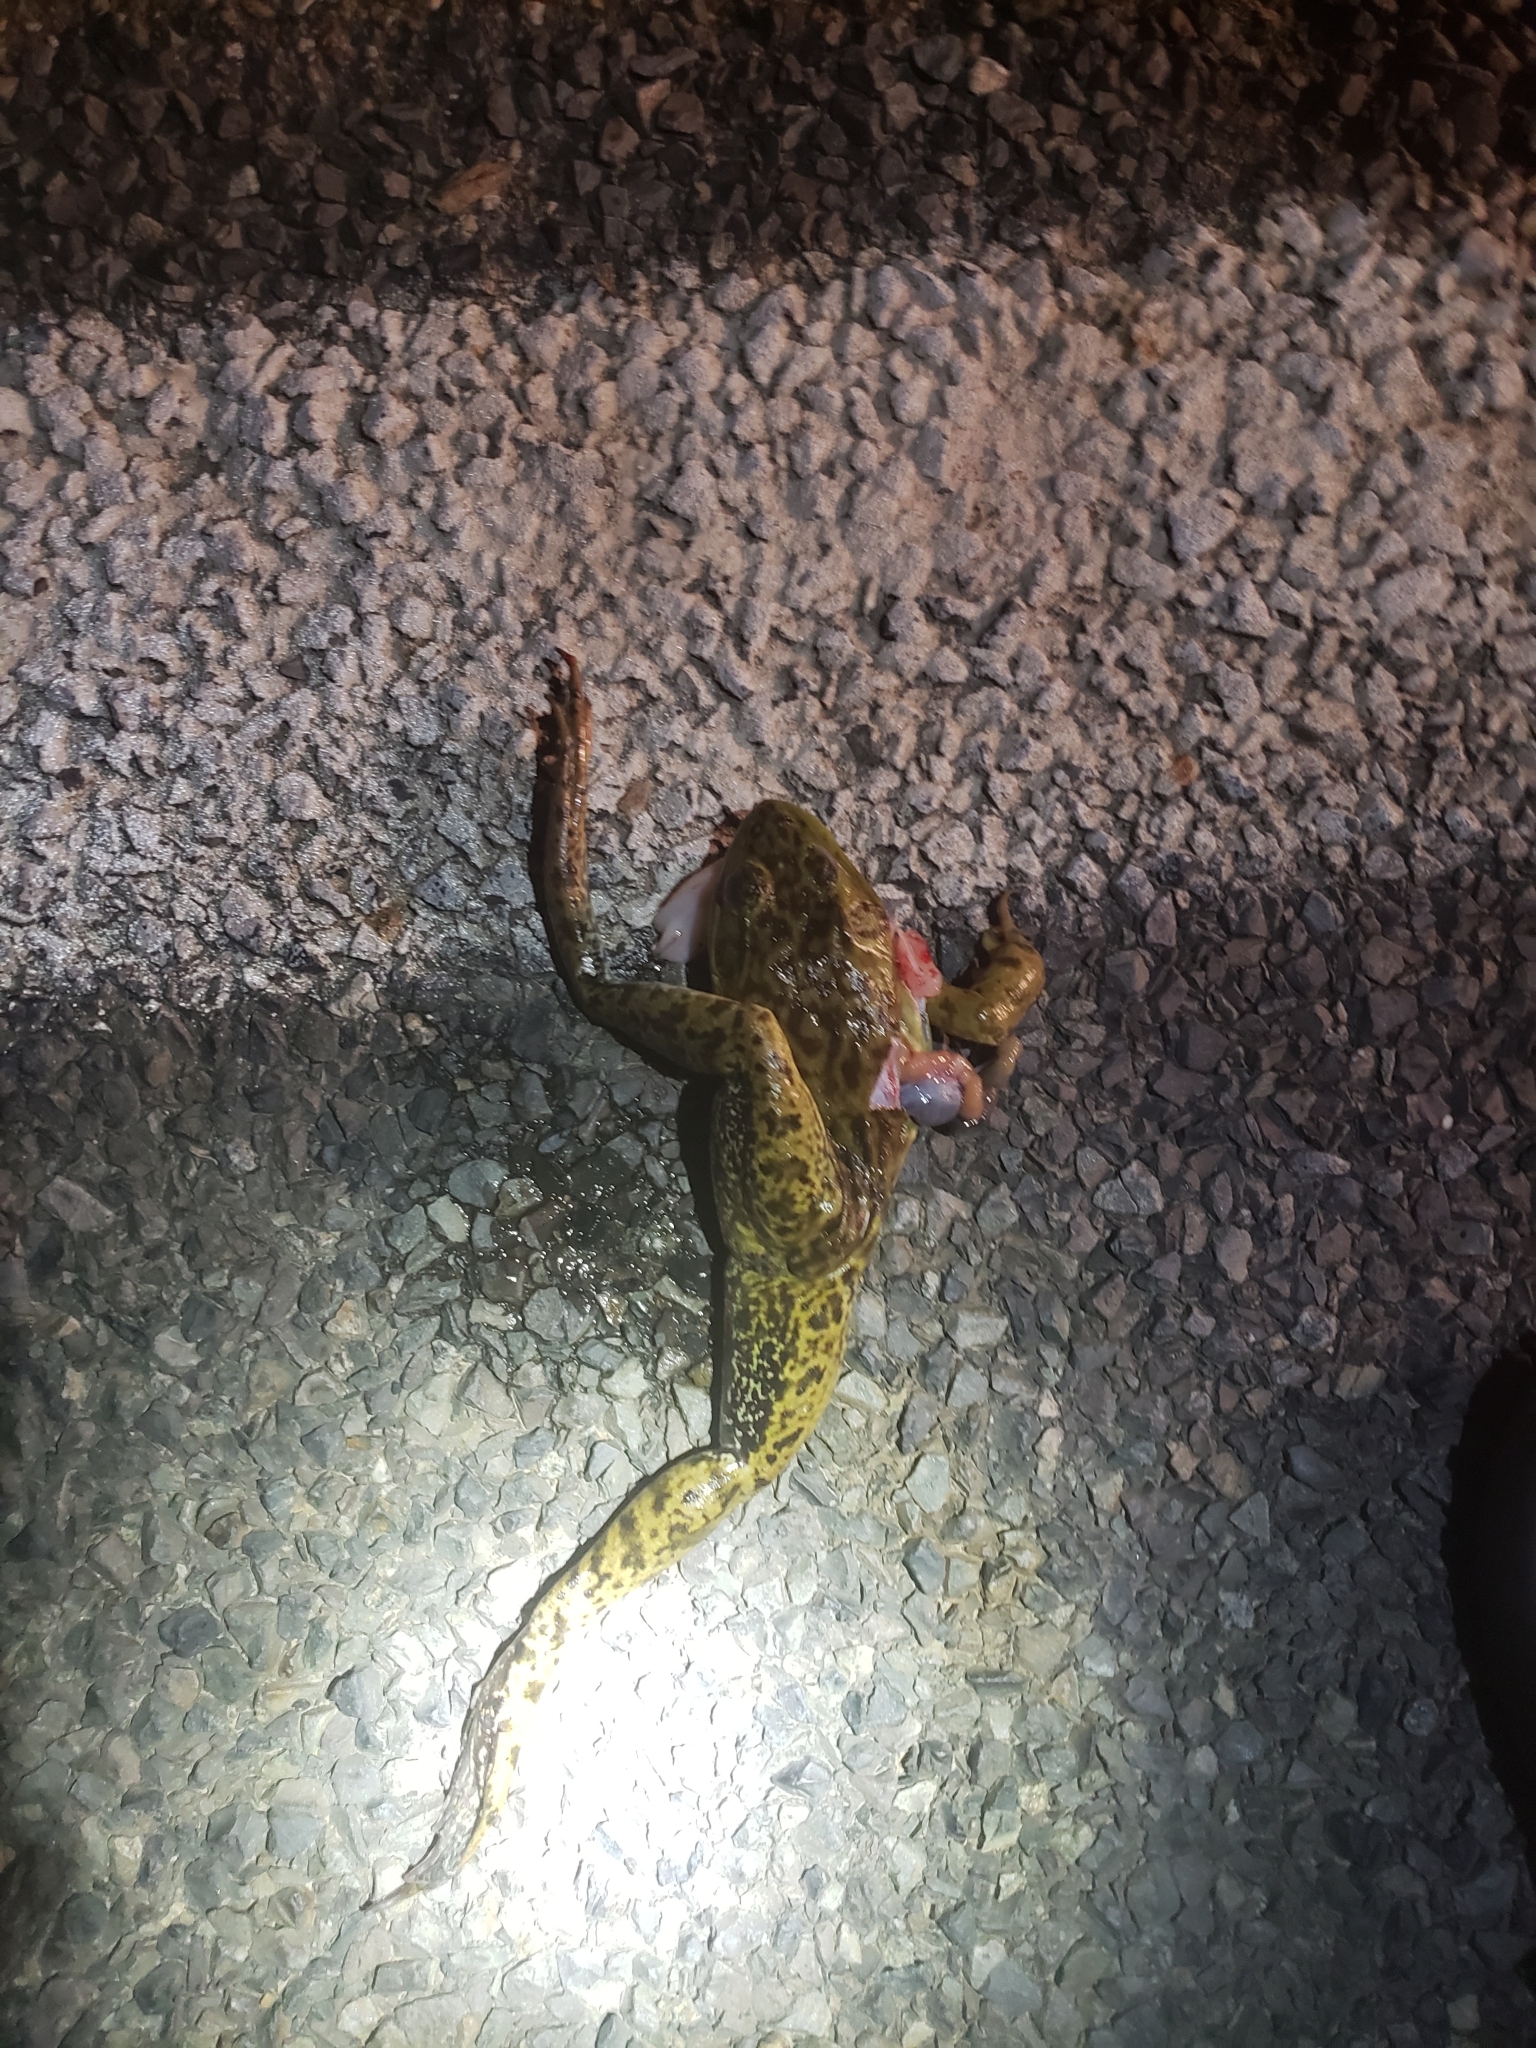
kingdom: Animalia
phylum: Chordata
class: Amphibia
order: Anura
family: Ranidae
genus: Lithobates
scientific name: Lithobates catesbeianus
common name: American bullfrog
